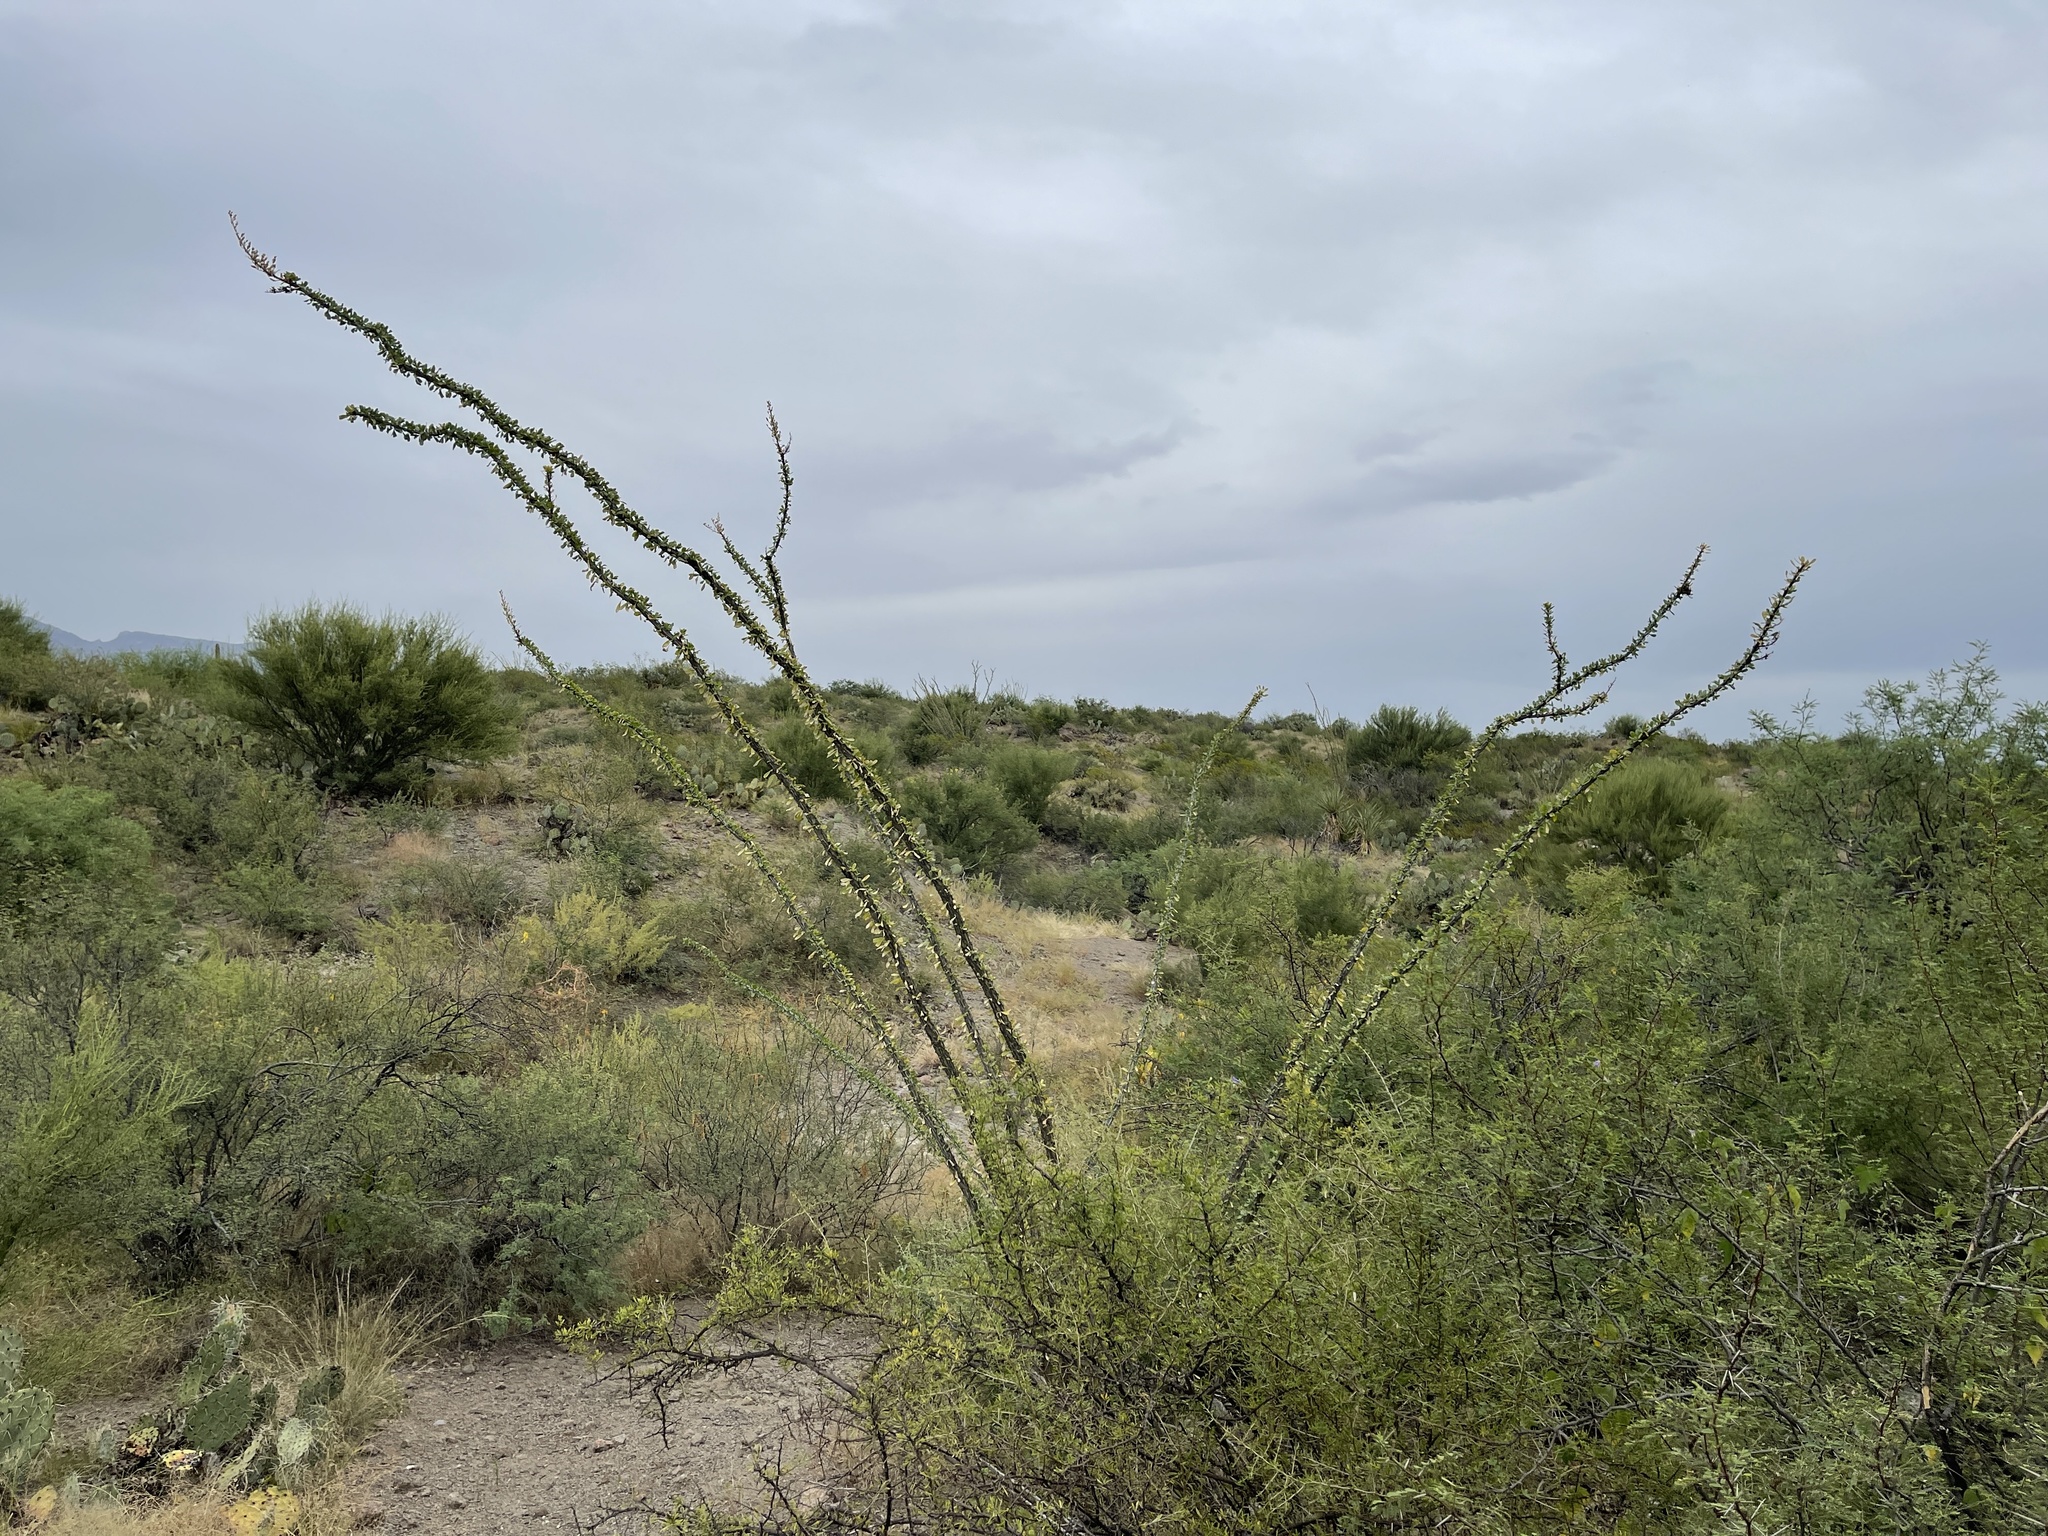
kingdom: Plantae
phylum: Tracheophyta
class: Magnoliopsida
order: Ericales
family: Fouquieriaceae
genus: Fouquieria
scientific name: Fouquieria splendens
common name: Vine-cactus
